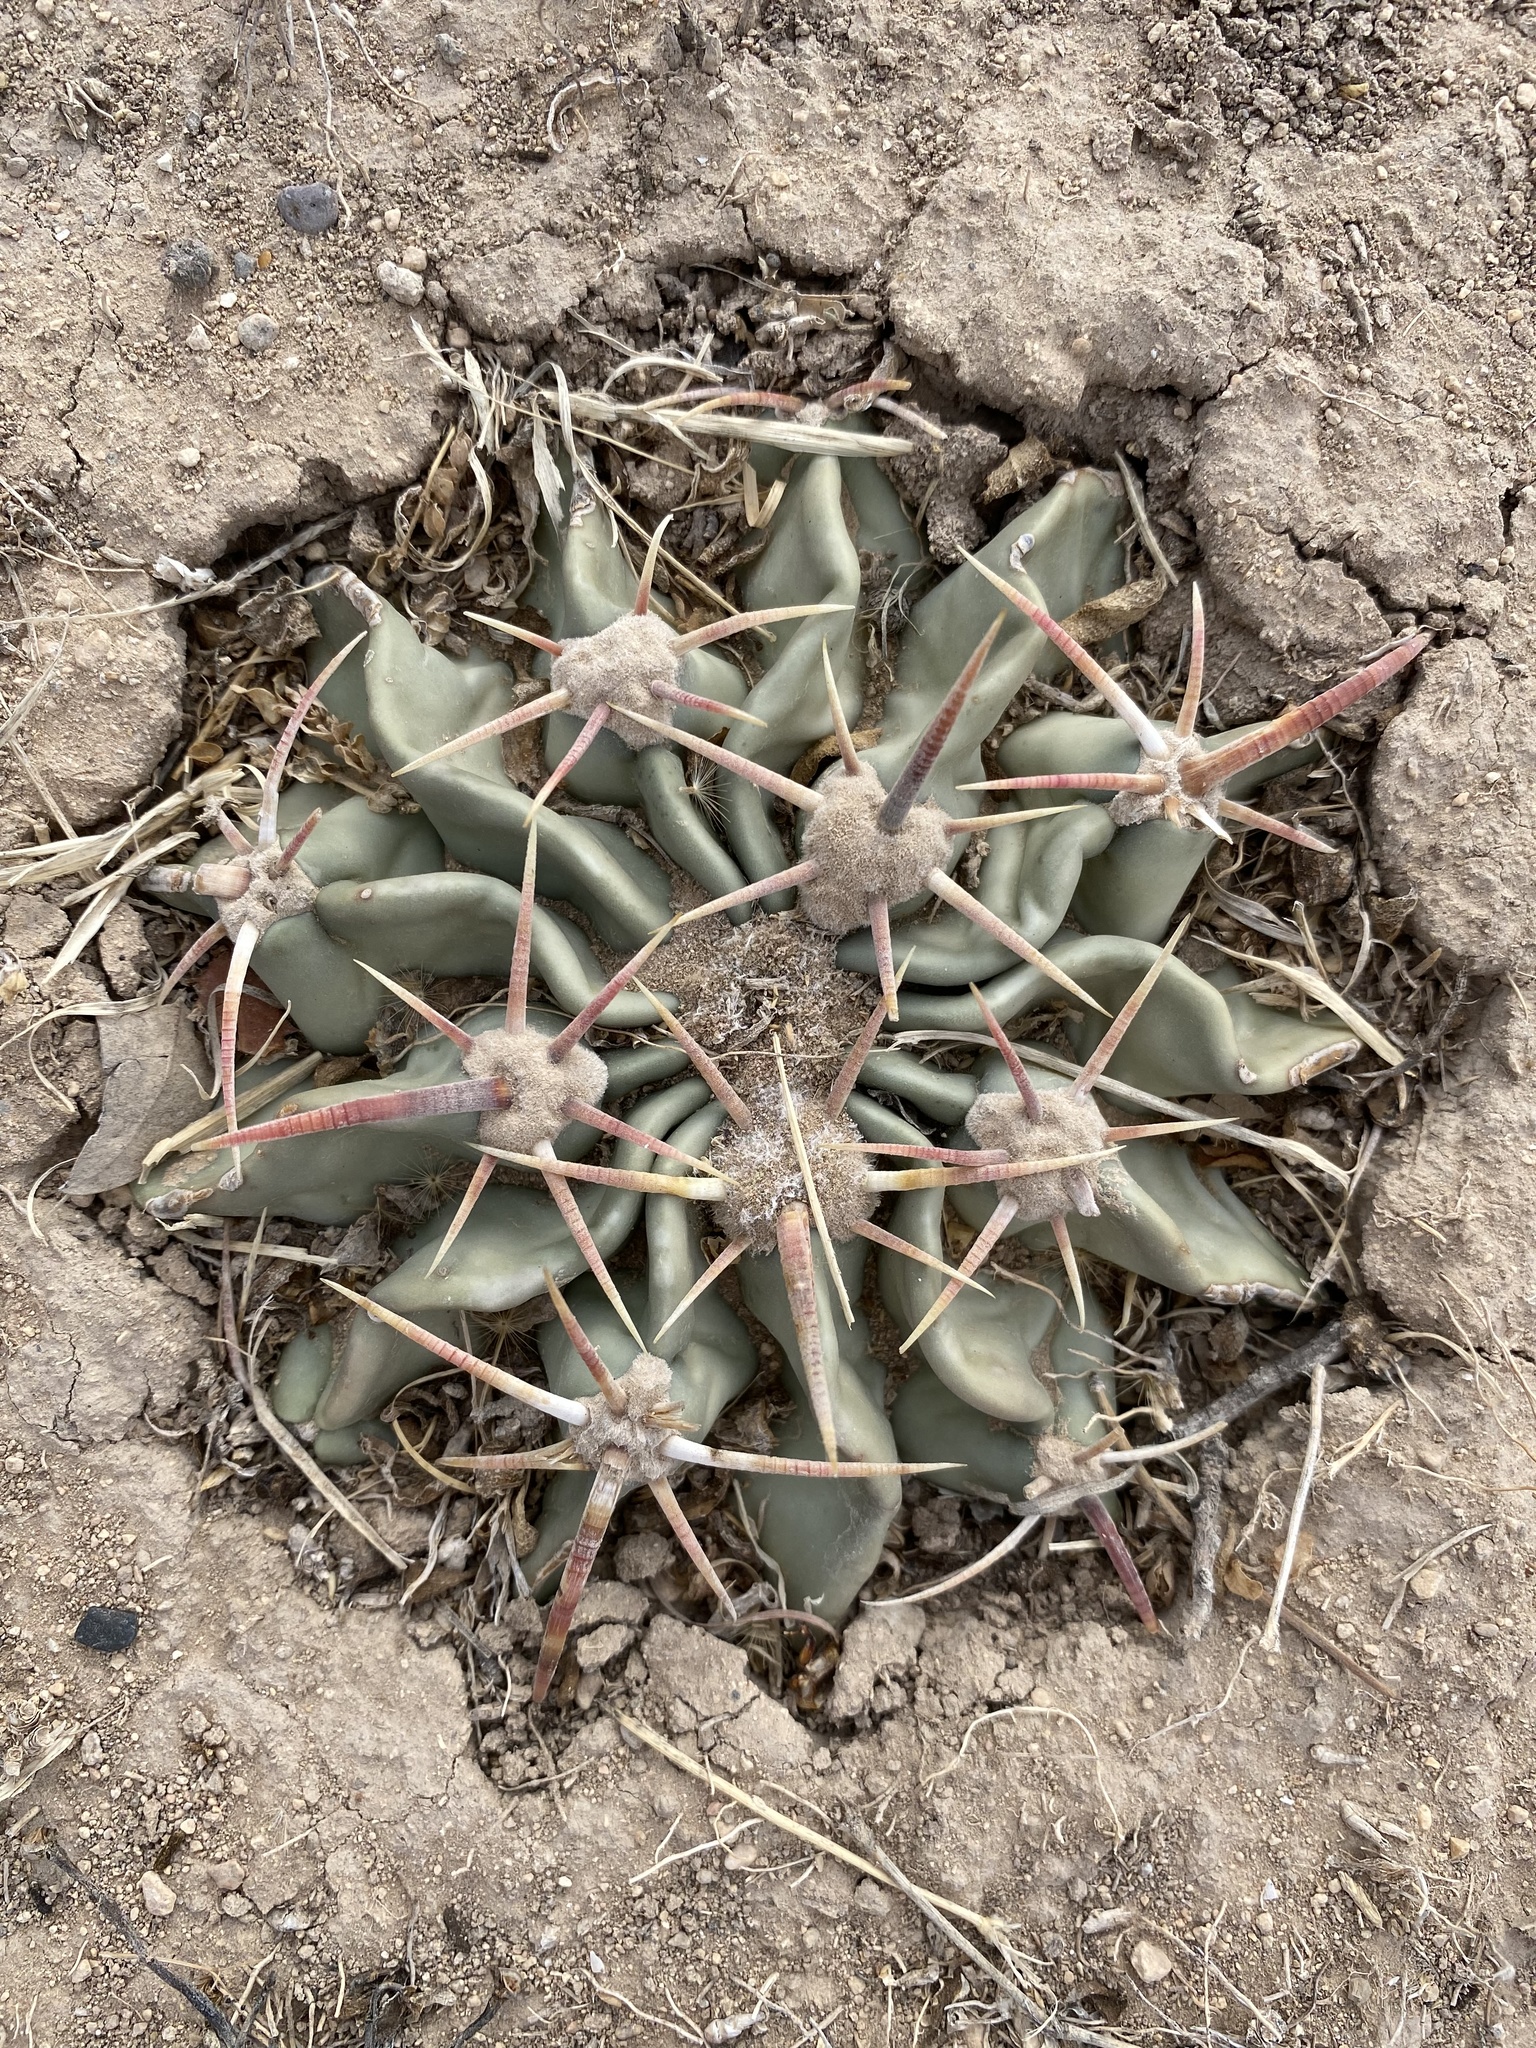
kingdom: Plantae
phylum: Tracheophyta
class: Magnoliopsida
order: Caryophyllales
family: Cactaceae
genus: Echinocactus
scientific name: Echinocactus texensis
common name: Devil's pincushion
